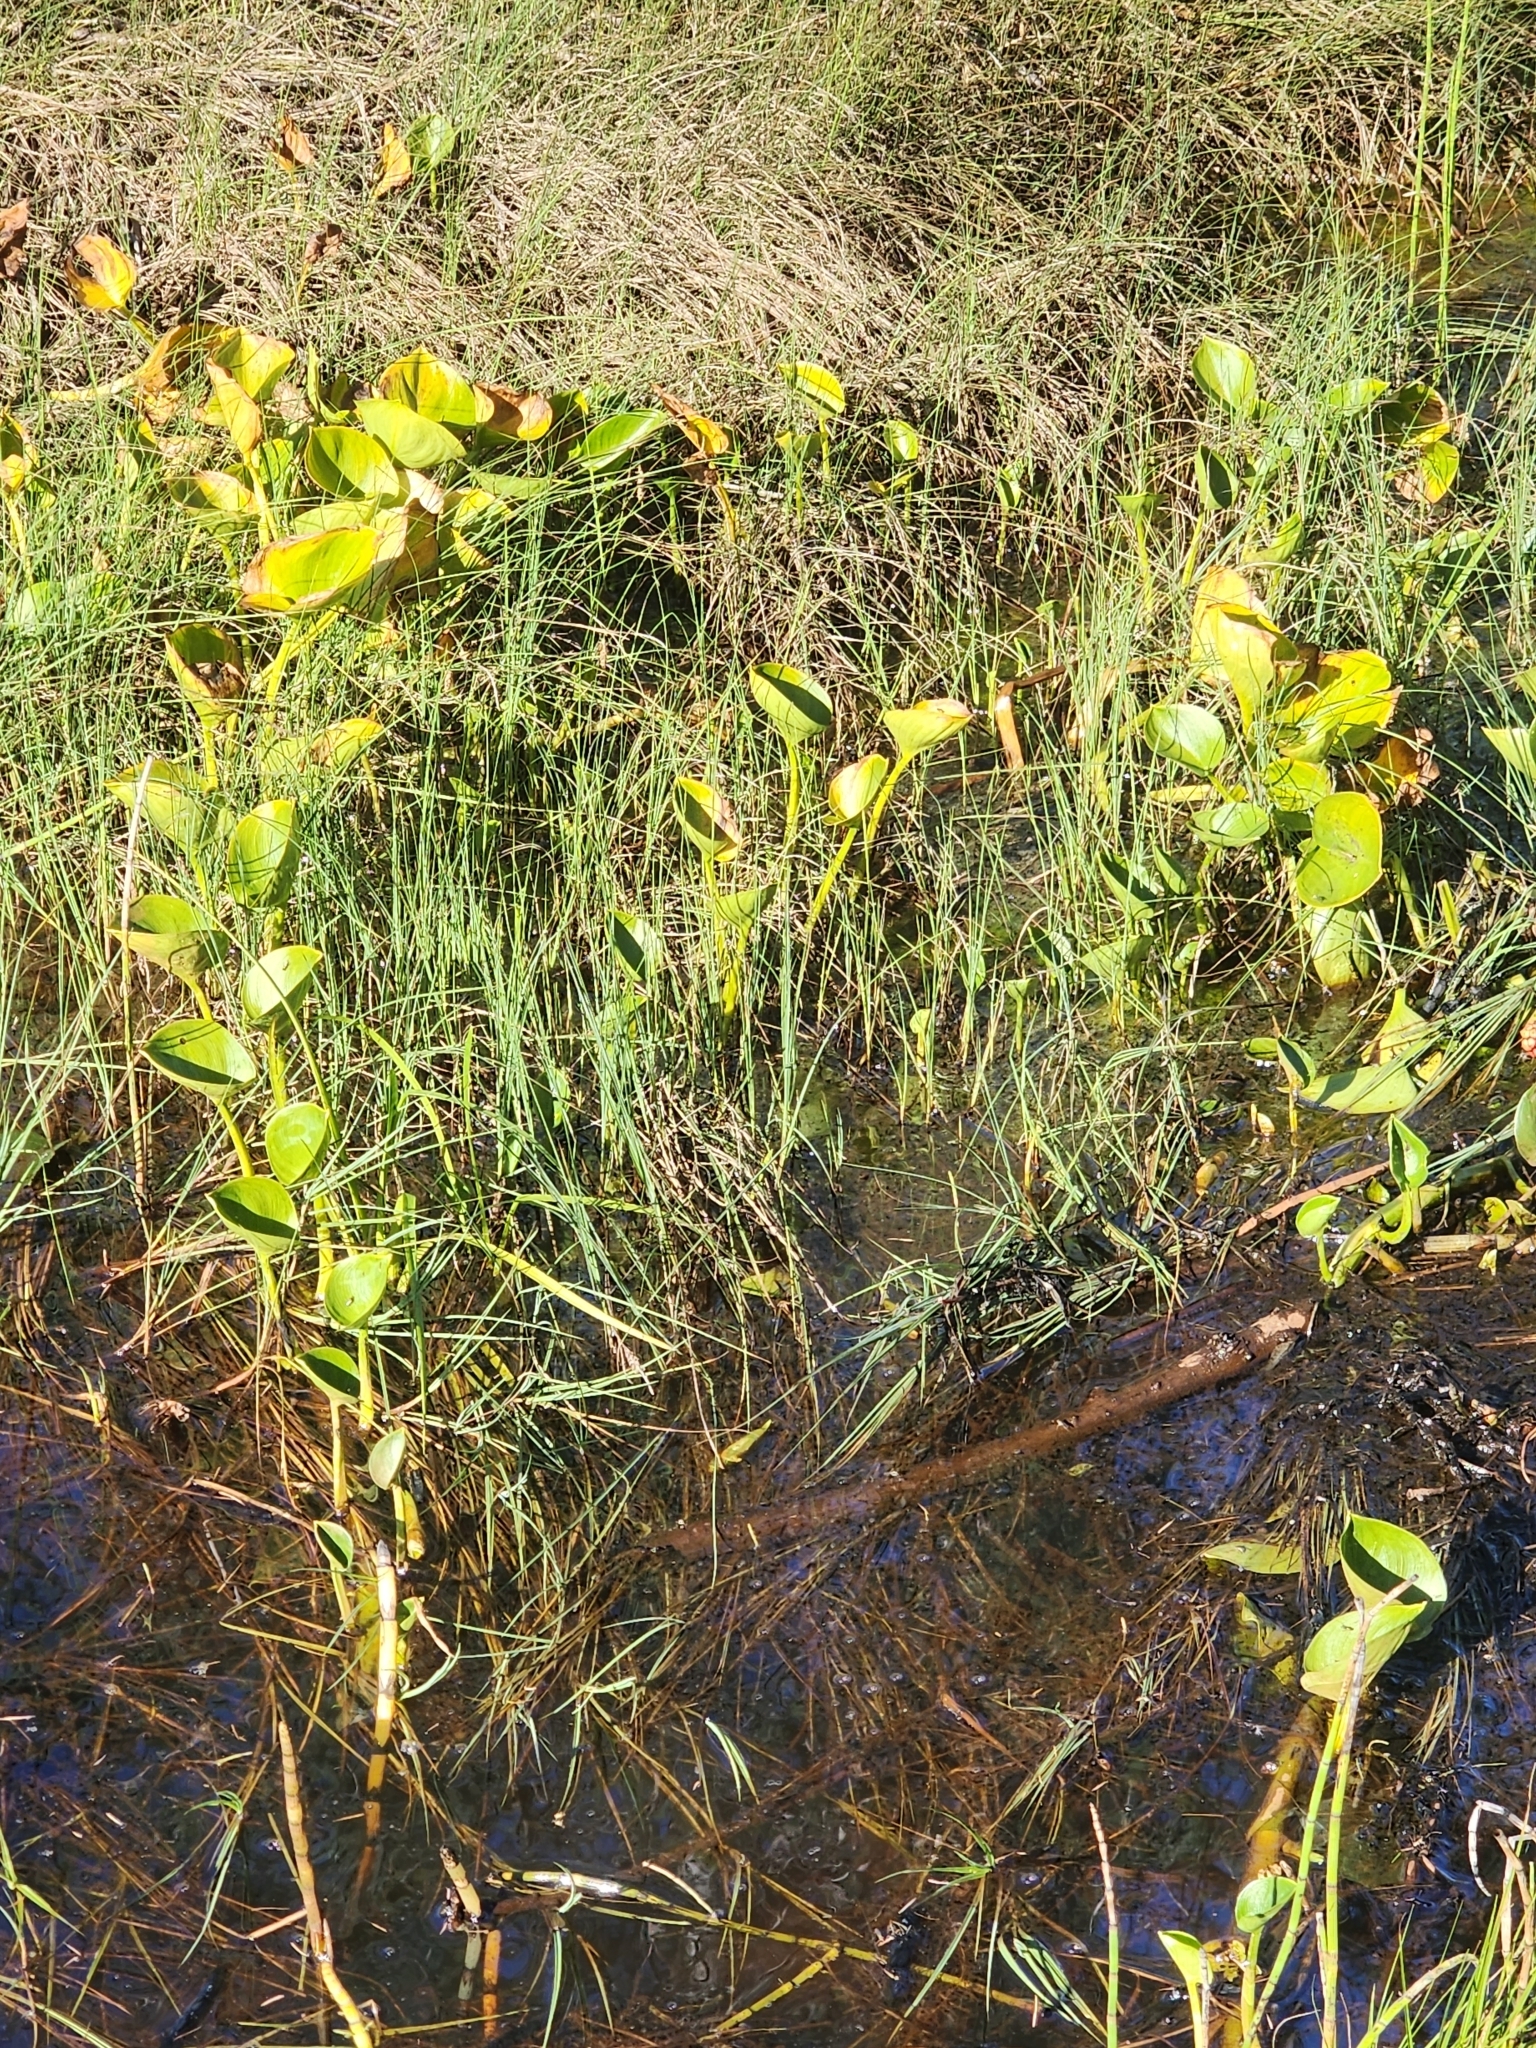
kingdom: Plantae
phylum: Tracheophyta
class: Liliopsida
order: Alismatales
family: Araceae
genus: Calla
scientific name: Calla palustris
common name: Bog arum
